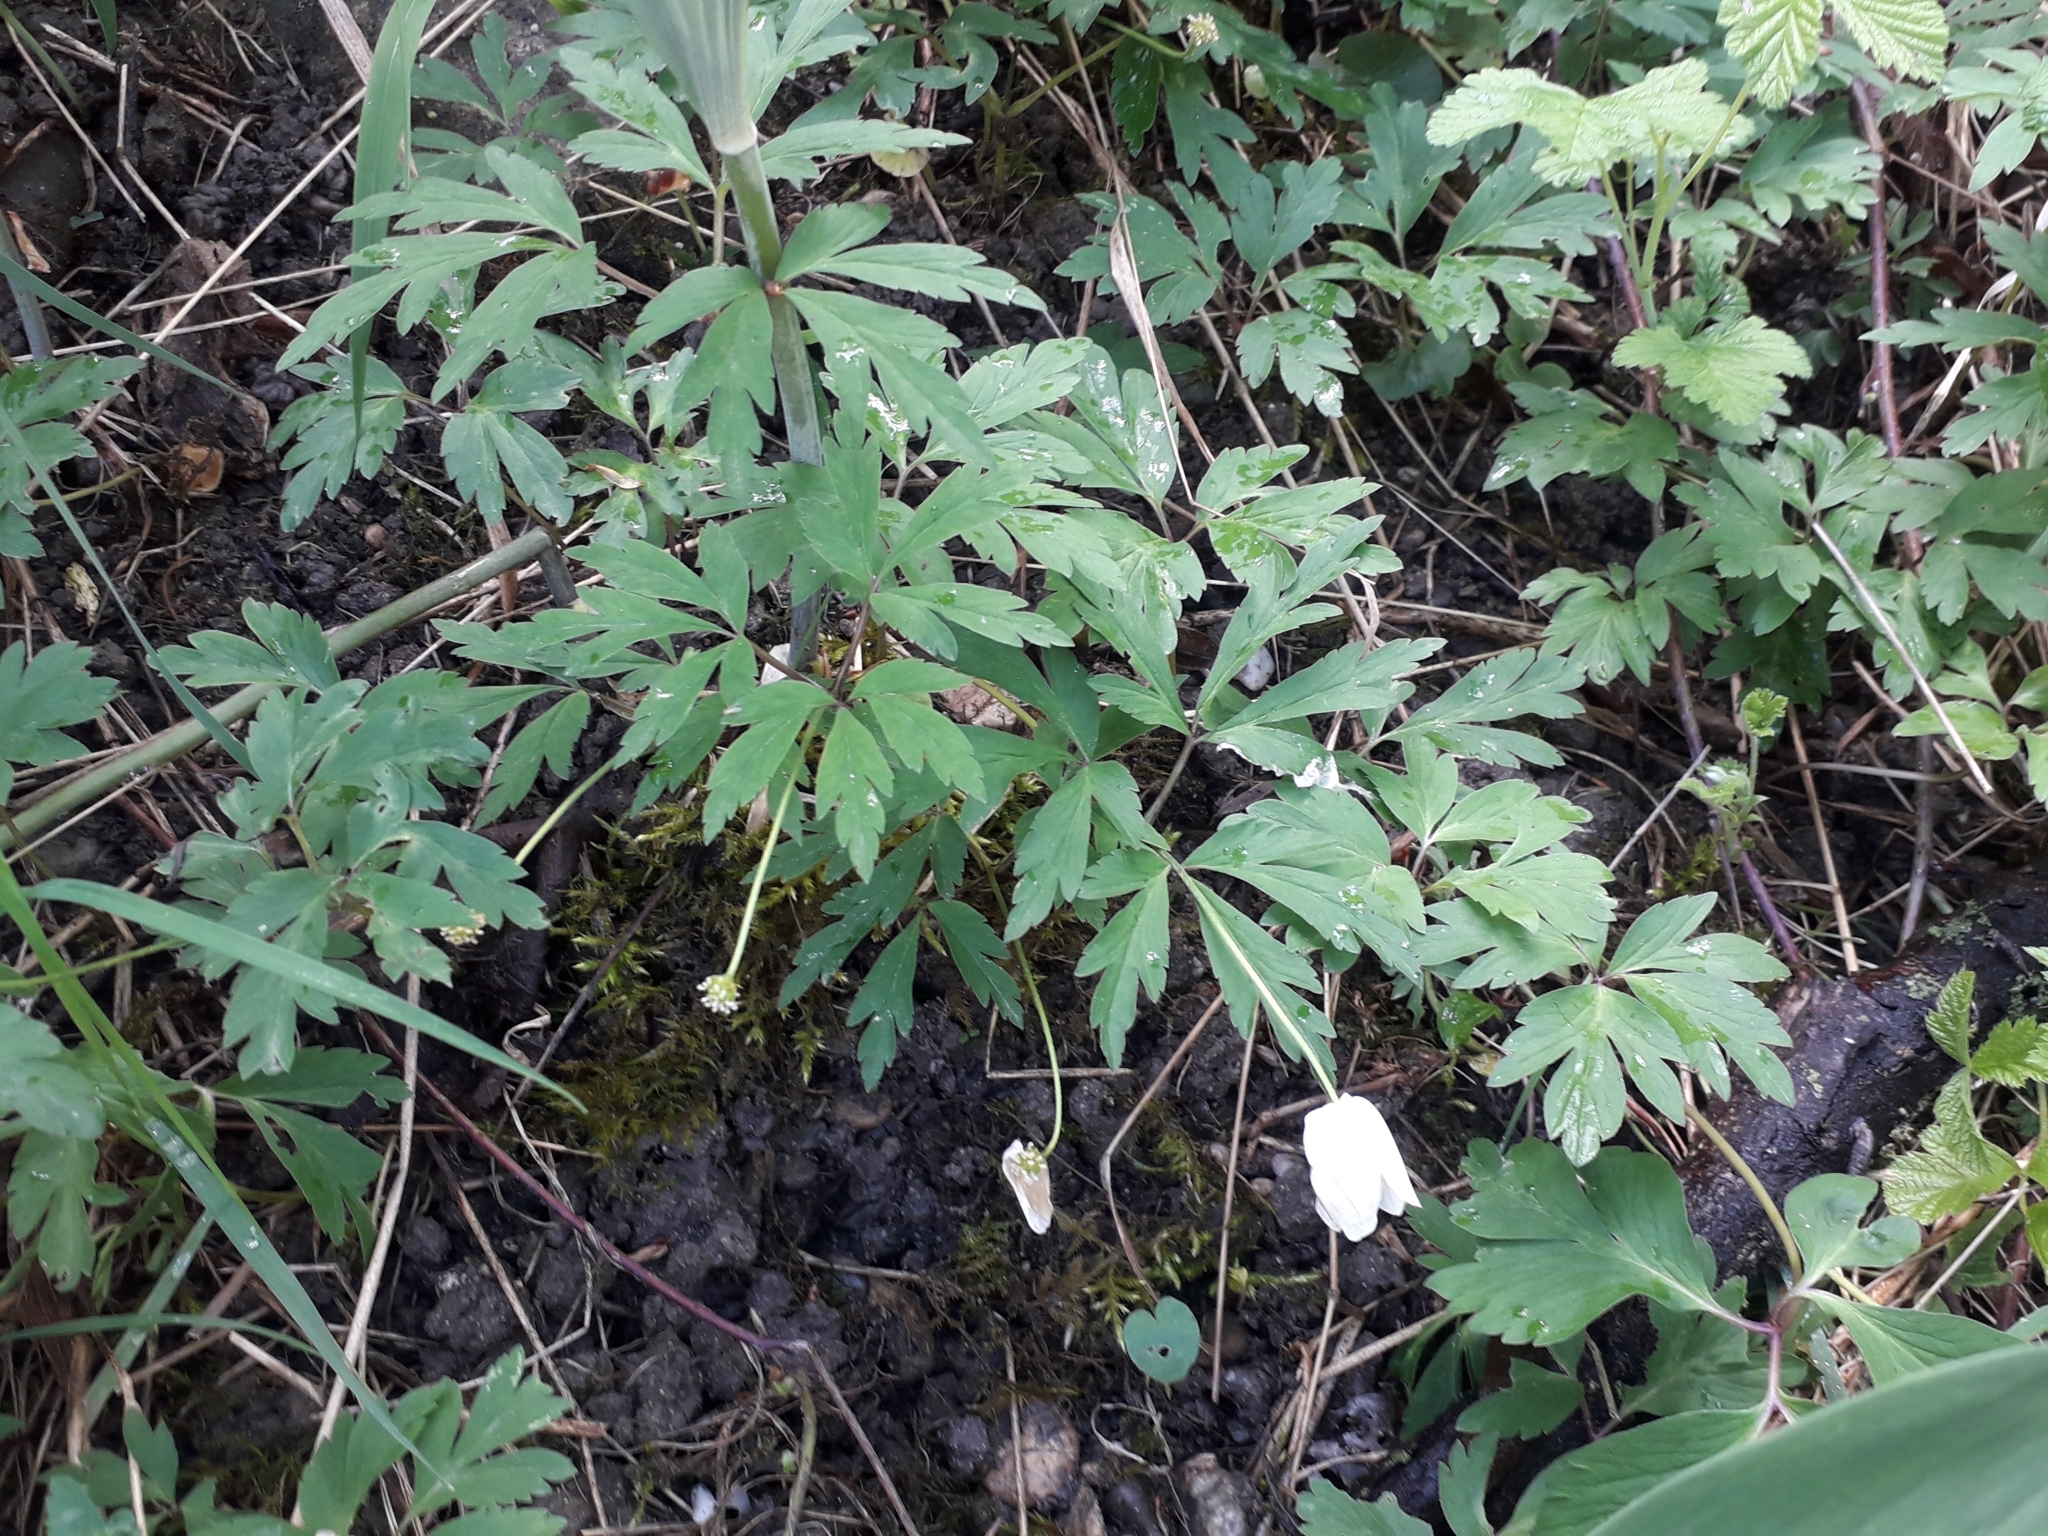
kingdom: Plantae
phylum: Tracheophyta
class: Magnoliopsida
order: Ranunculales
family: Ranunculaceae
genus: Anemone
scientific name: Anemone nemorosa
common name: Wood anemone
